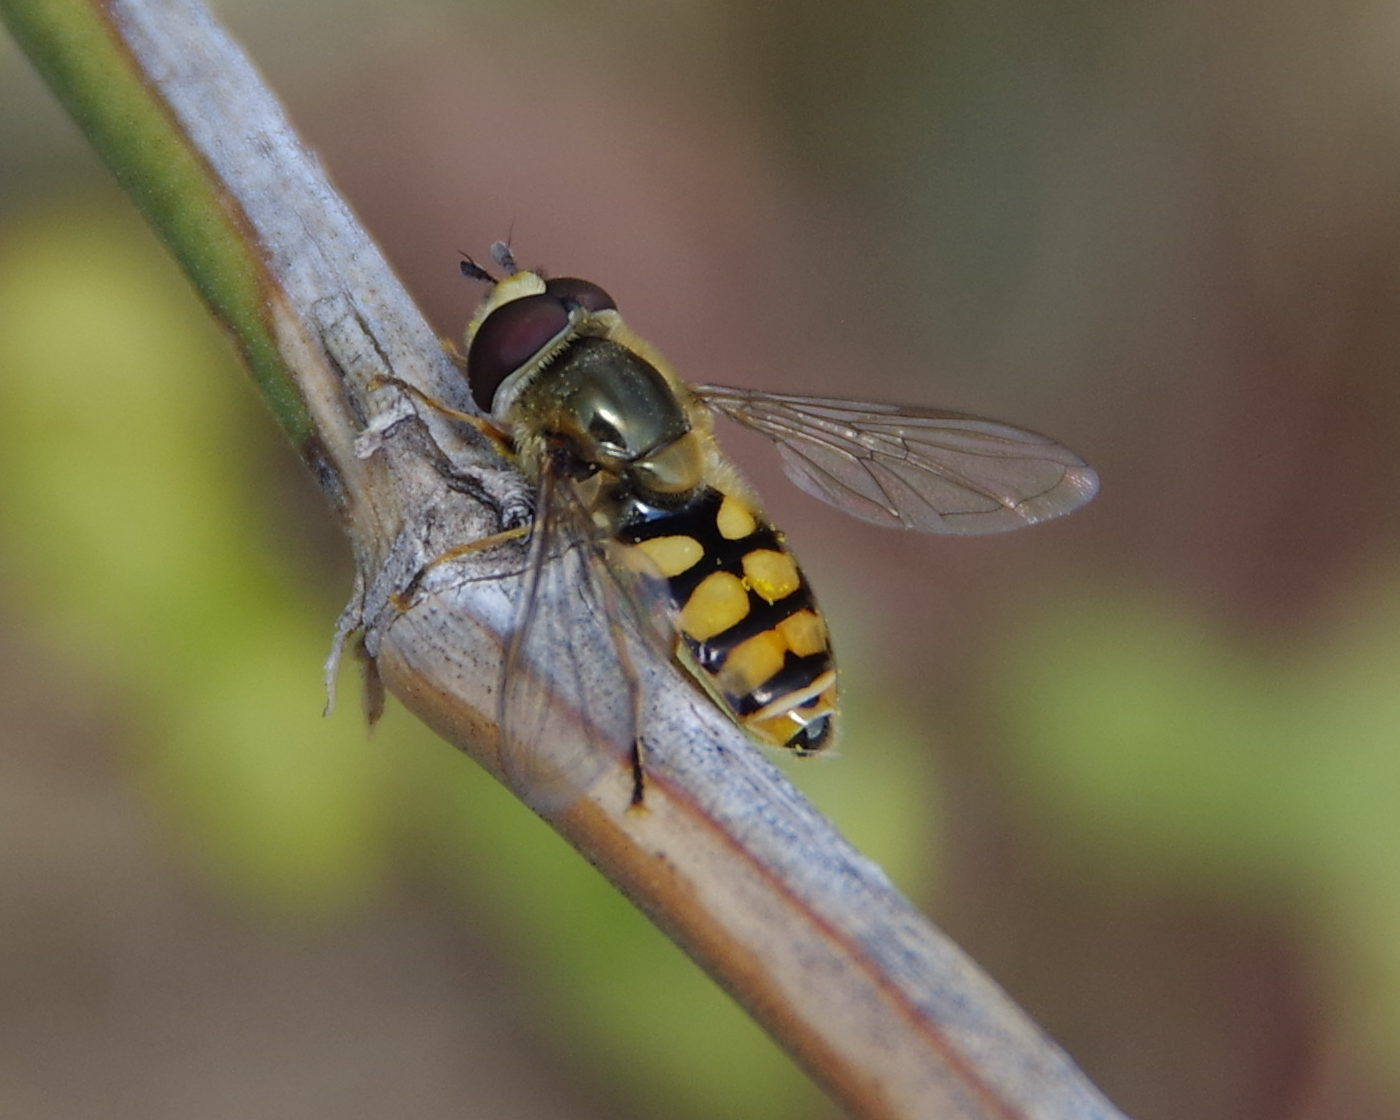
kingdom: Animalia
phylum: Arthropoda
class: Insecta
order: Diptera
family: Syrphidae
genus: Eupeodes
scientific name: Eupeodes corollae
